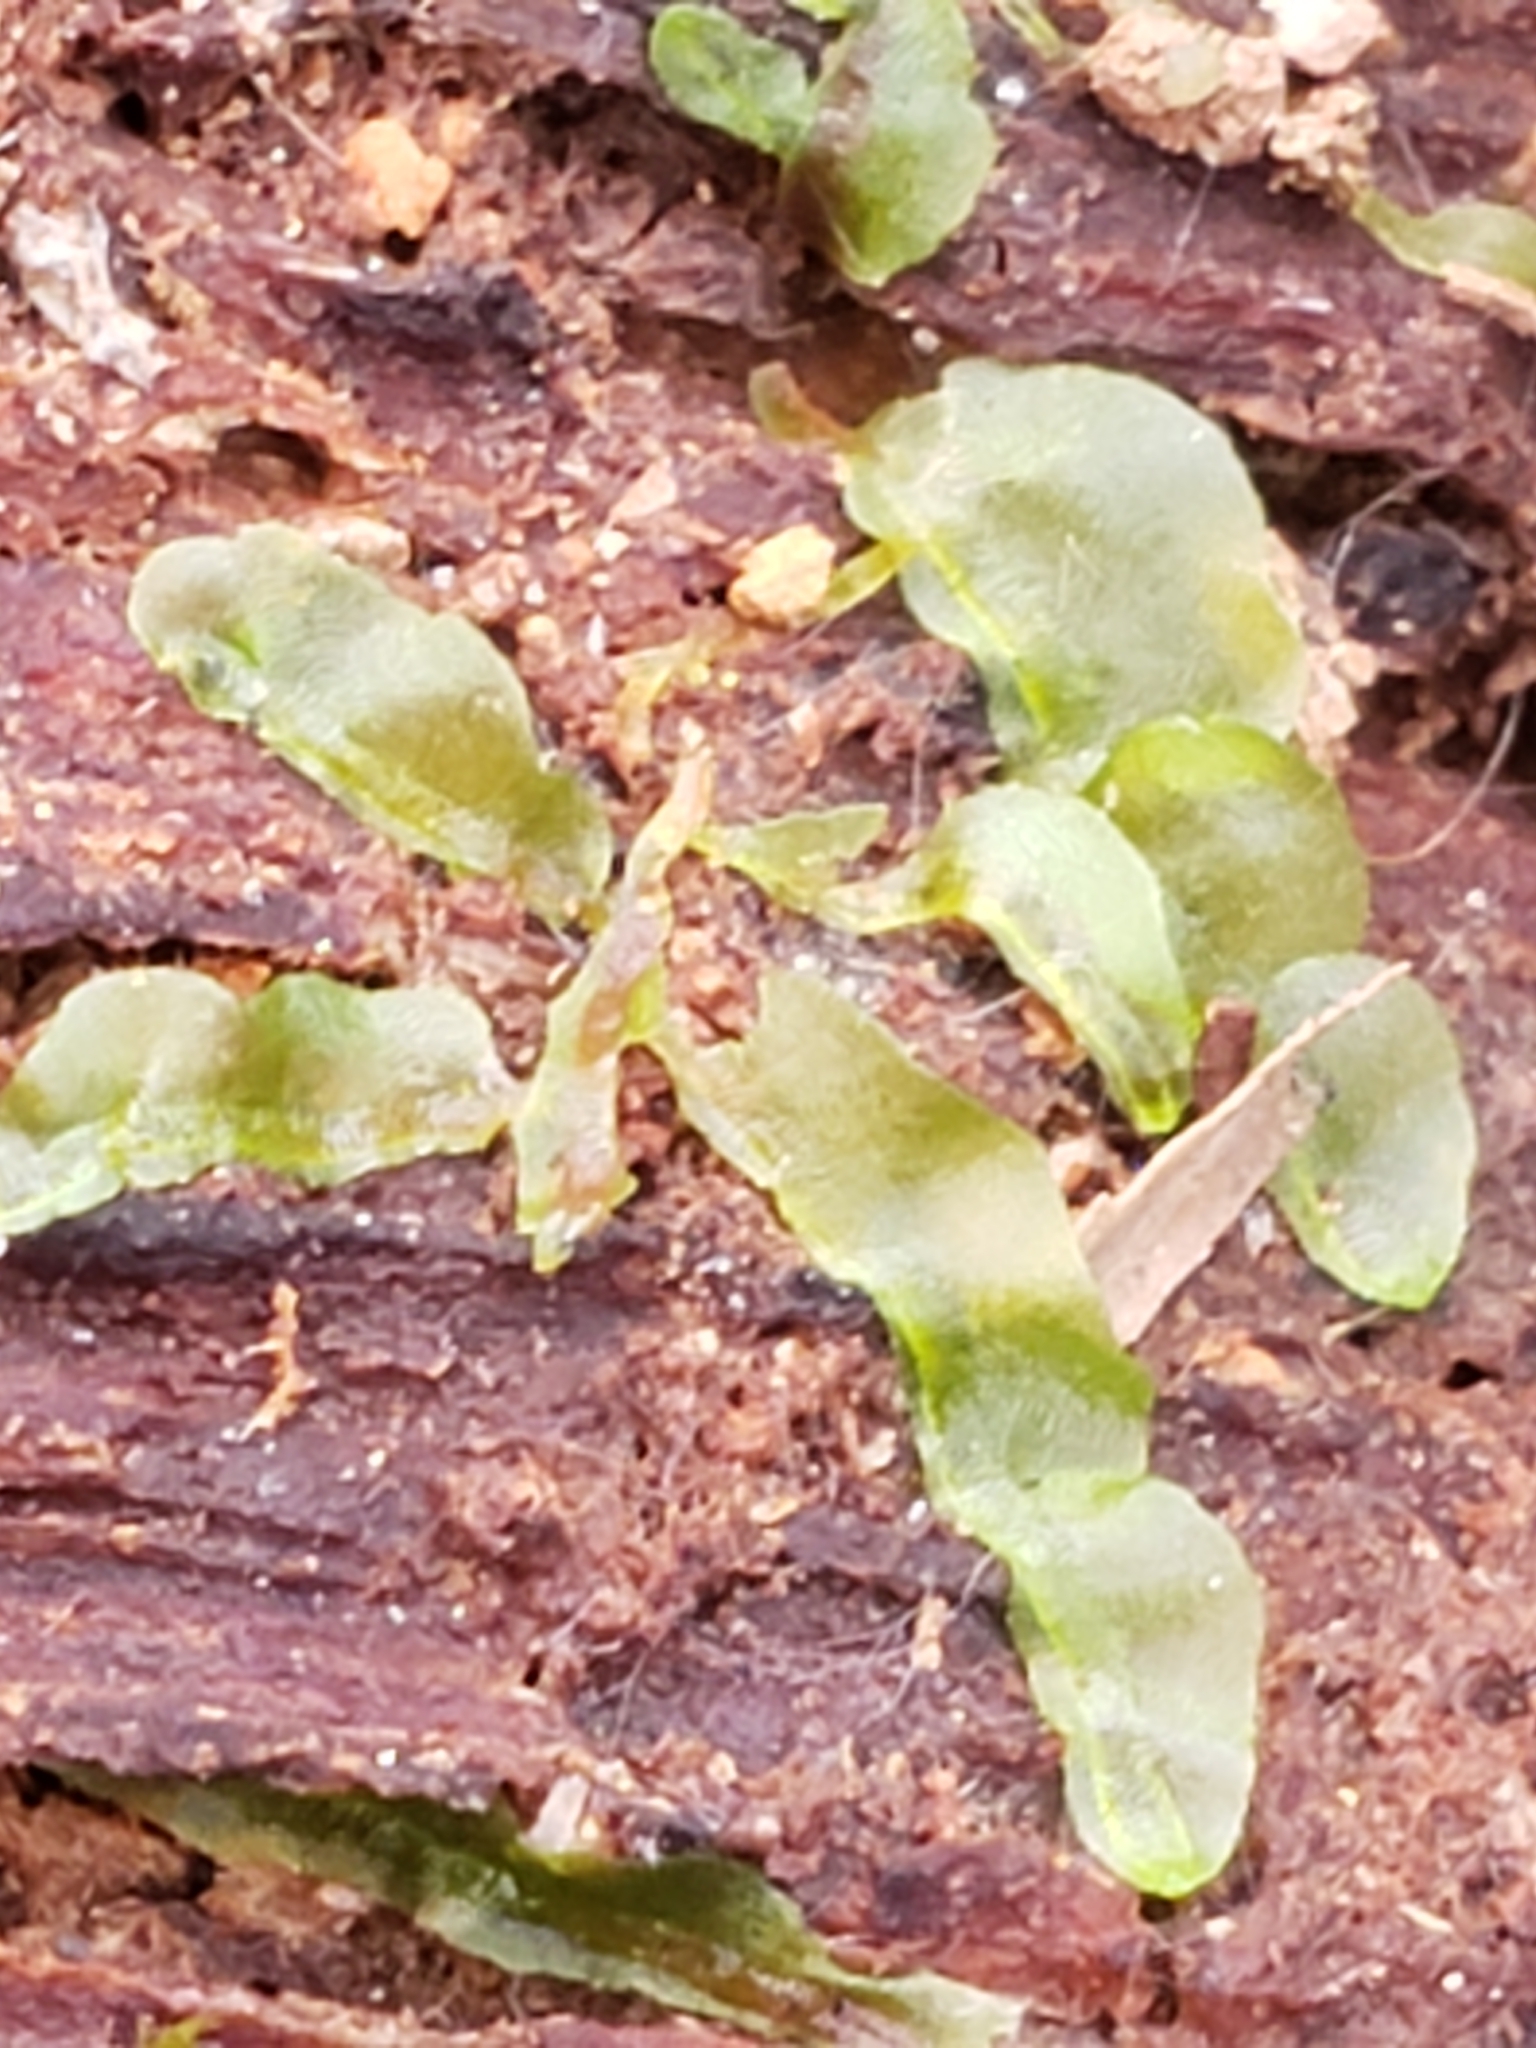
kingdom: Plantae
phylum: Marchantiophyta
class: Jungermanniopsida
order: Pallaviciniales
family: Pallaviciniaceae
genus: Pallavicinia
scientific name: Pallavicinia lyellii
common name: Veilwort
